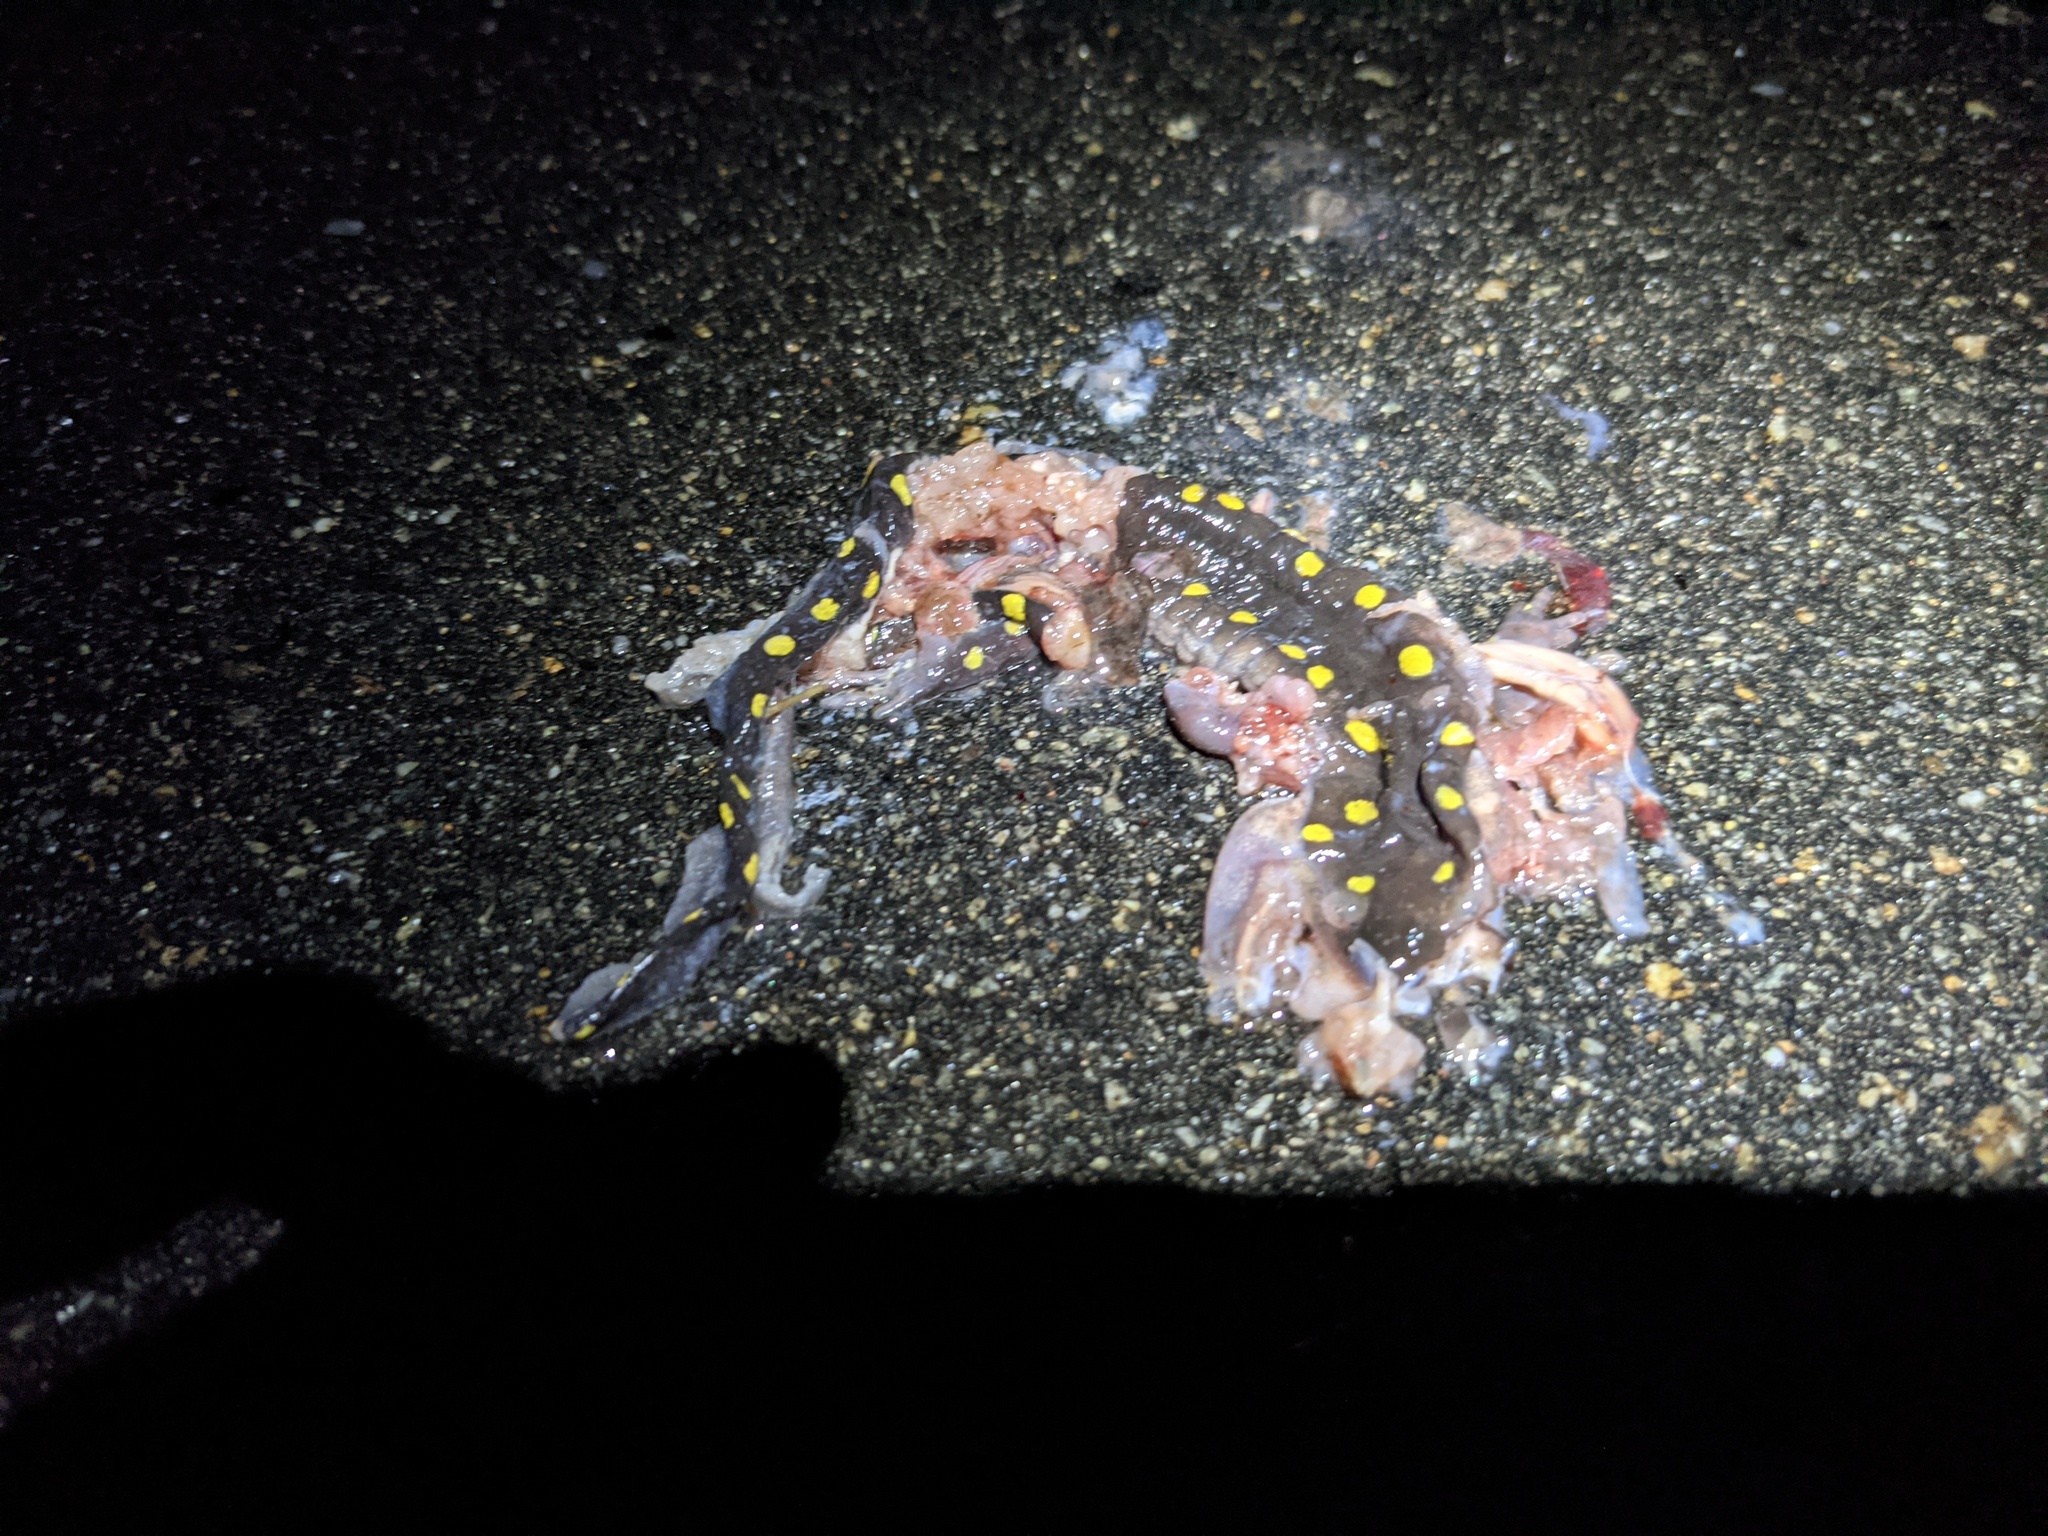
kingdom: Animalia
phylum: Chordata
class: Amphibia
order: Caudata
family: Ambystomatidae
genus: Ambystoma
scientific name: Ambystoma maculatum
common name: Spotted salamander
